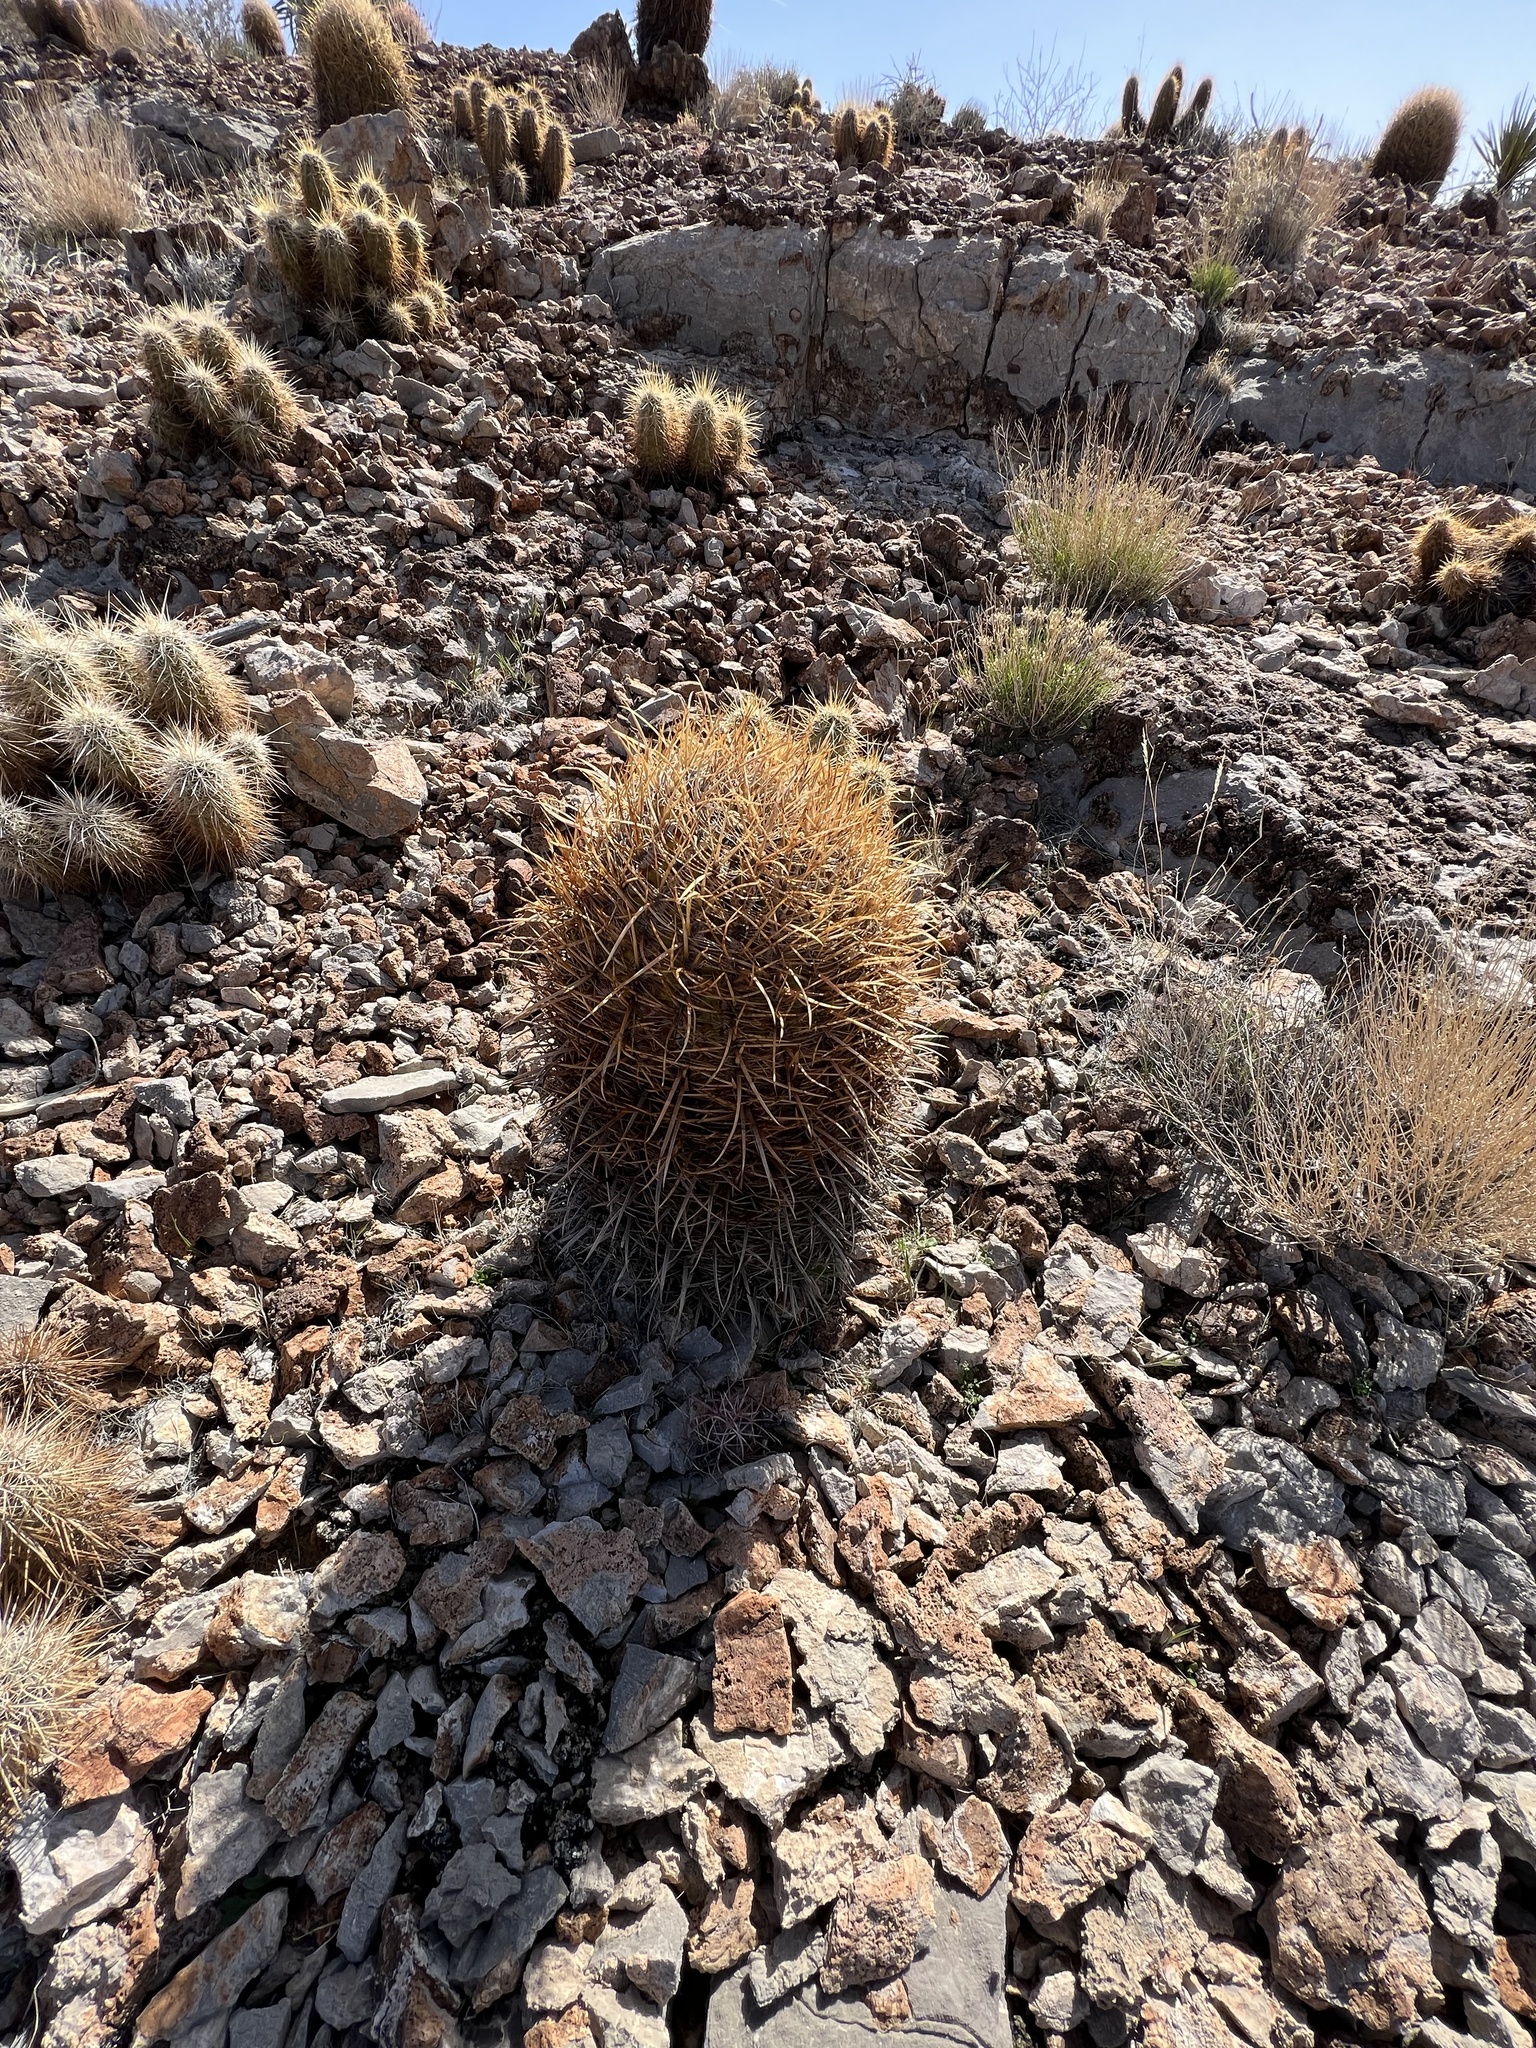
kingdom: Plantae
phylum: Tracheophyta
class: Magnoliopsida
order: Caryophyllales
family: Cactaceae
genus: Ferocactus
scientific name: Ferocactus cylindraceus
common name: California barrel cactus
